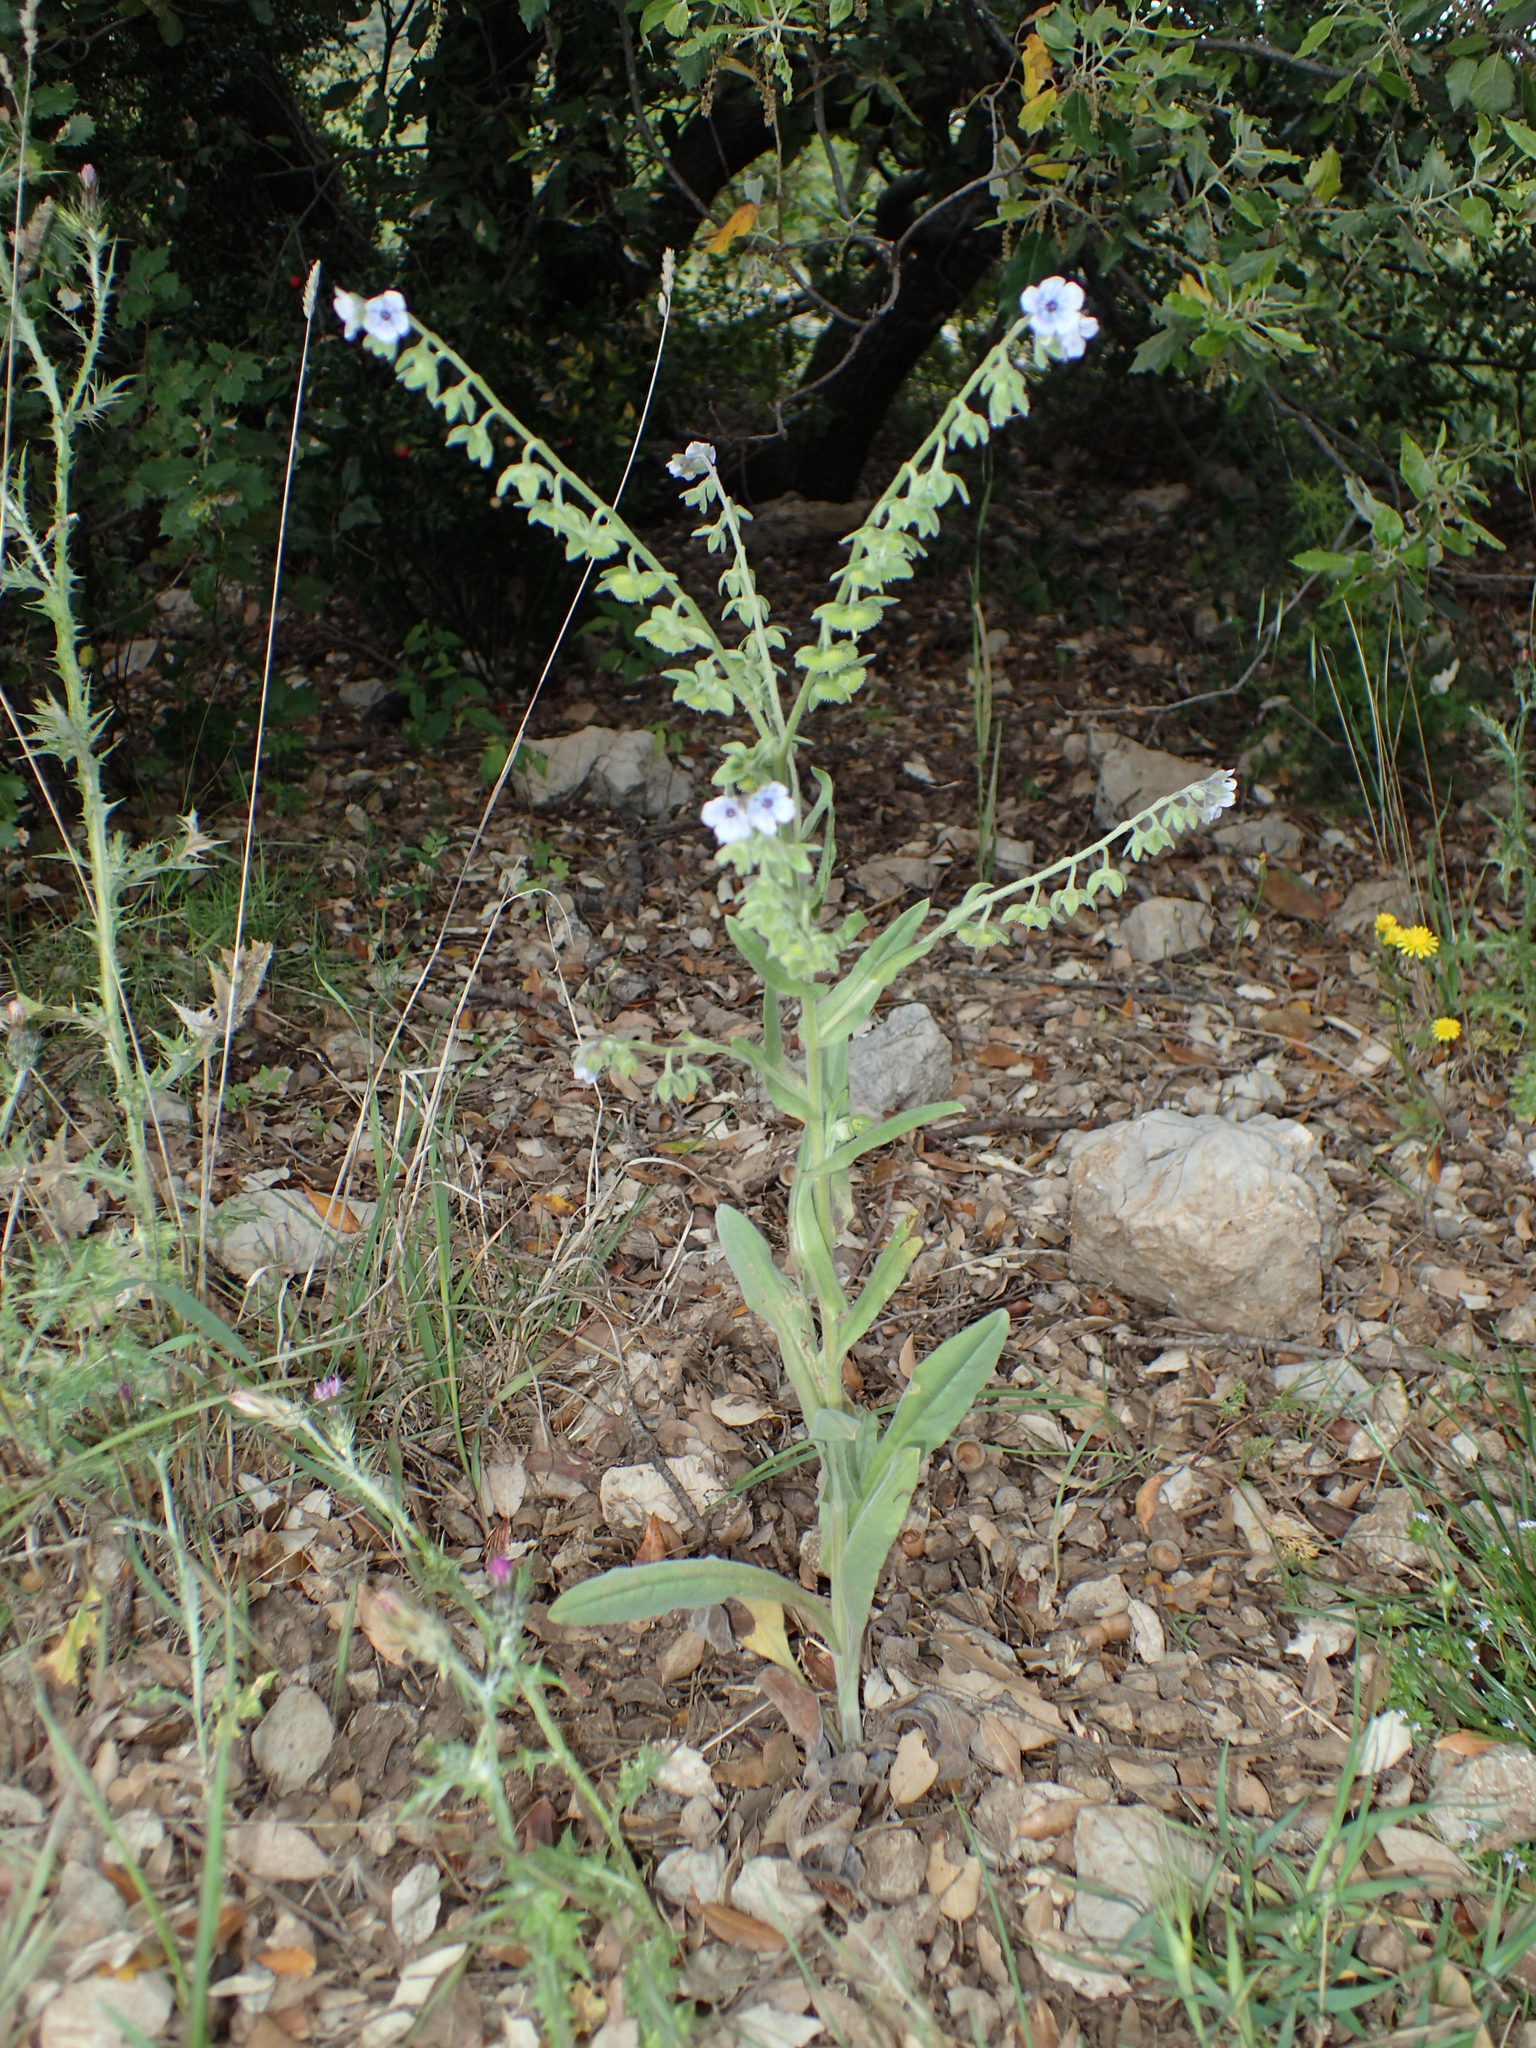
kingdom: Plantae
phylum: Tracheophyta
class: Magnoliopsida
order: Boraginales
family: Boraginaceae
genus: Cynoglossum
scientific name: Cynoglossum creticum
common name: Blue hound's tongue
